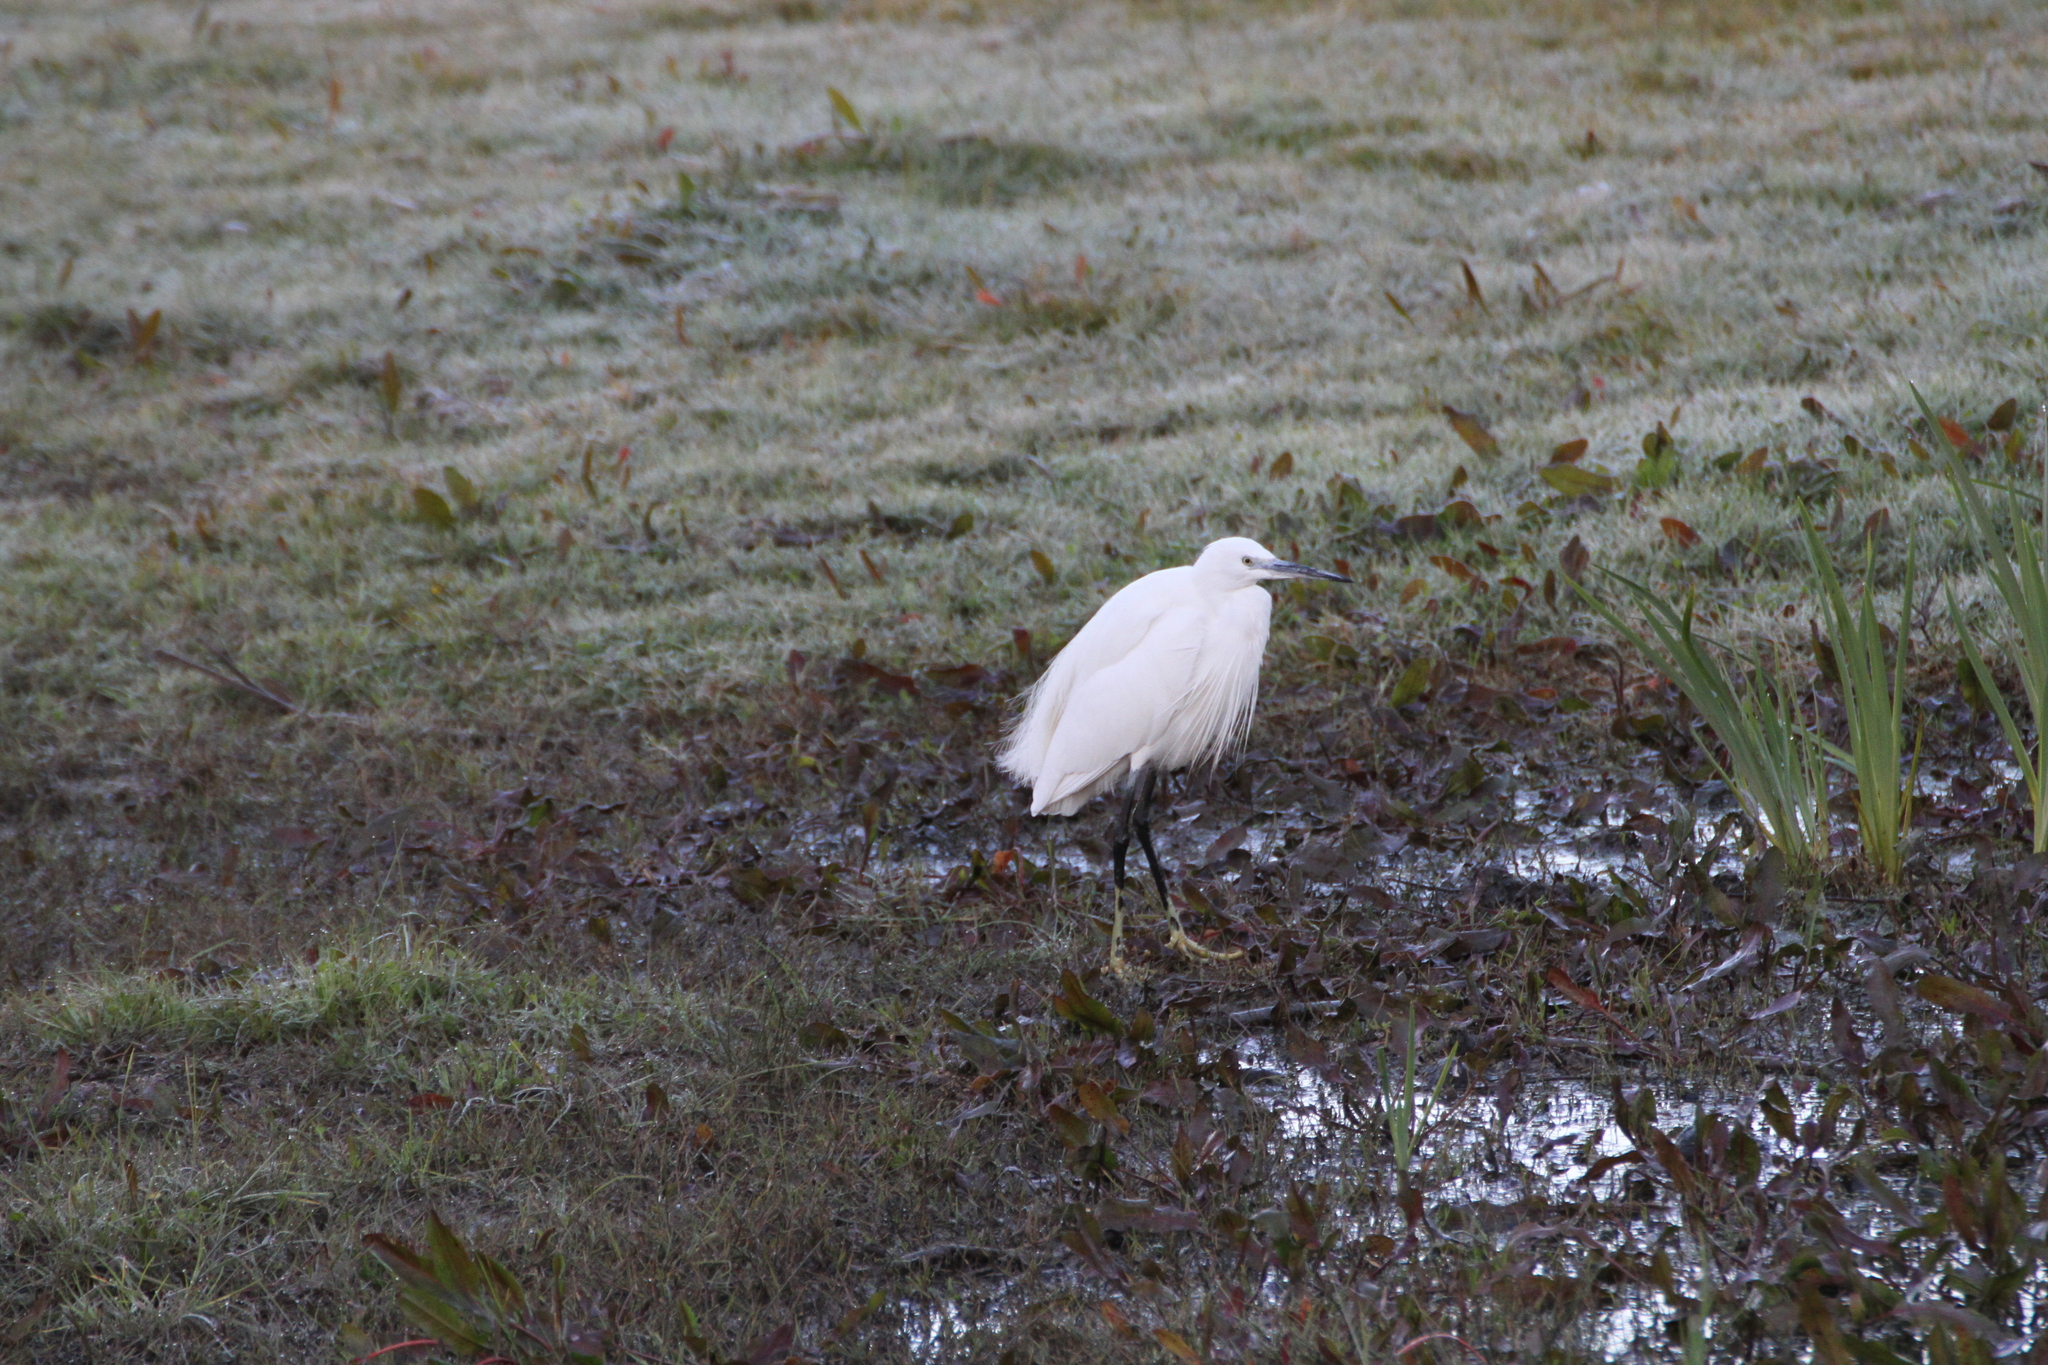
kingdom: Animalia
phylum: Chordata
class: Aves
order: Pelecaniformes
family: Ardeidae
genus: Egretta
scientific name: Egretta garzetta
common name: Little egret
